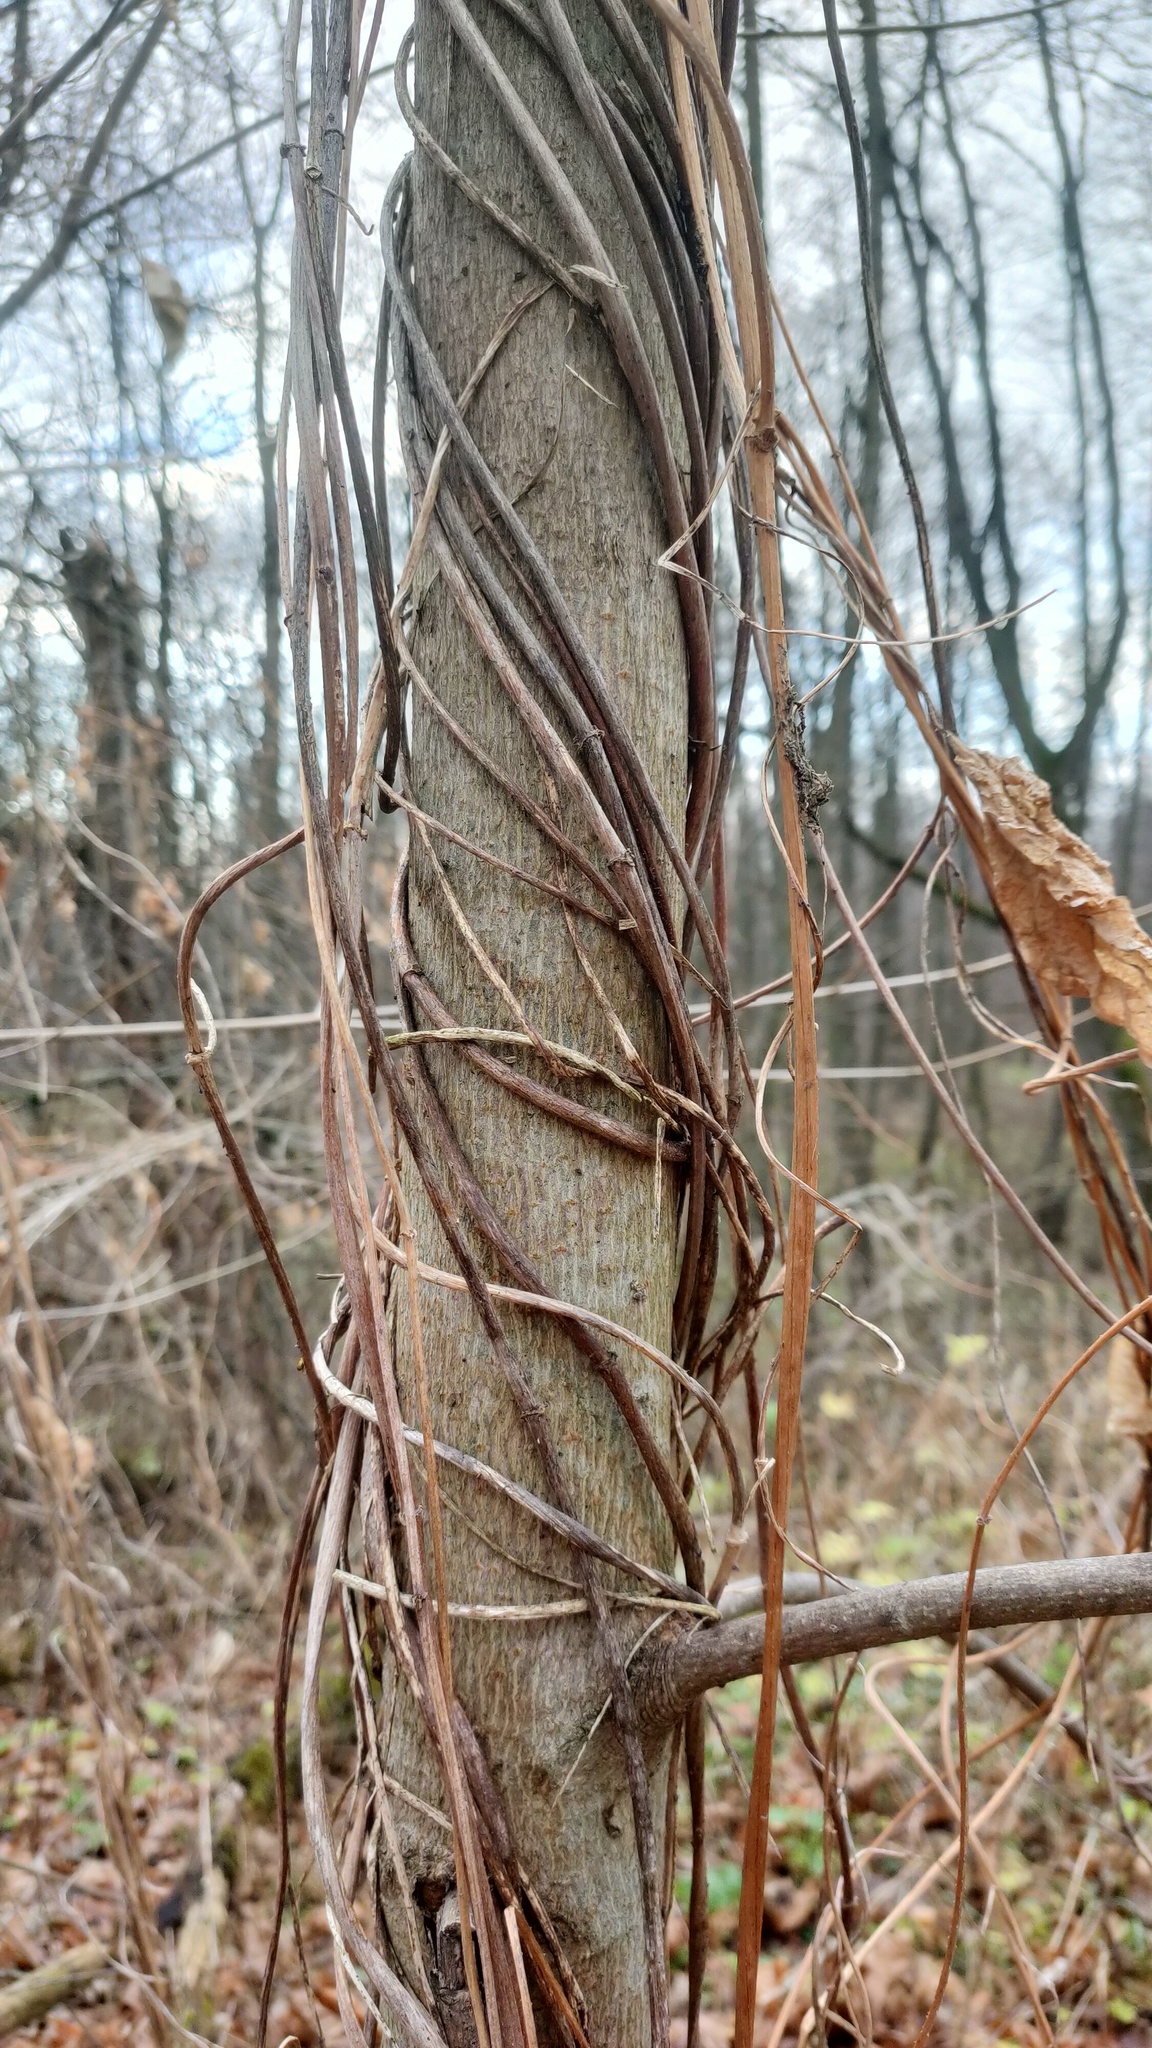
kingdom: Plantae
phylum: Tracheophyta
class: Magnoliopsida
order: Rosales
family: Cannabaceae
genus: Humulus
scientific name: Humulus lupulus
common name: Hop
